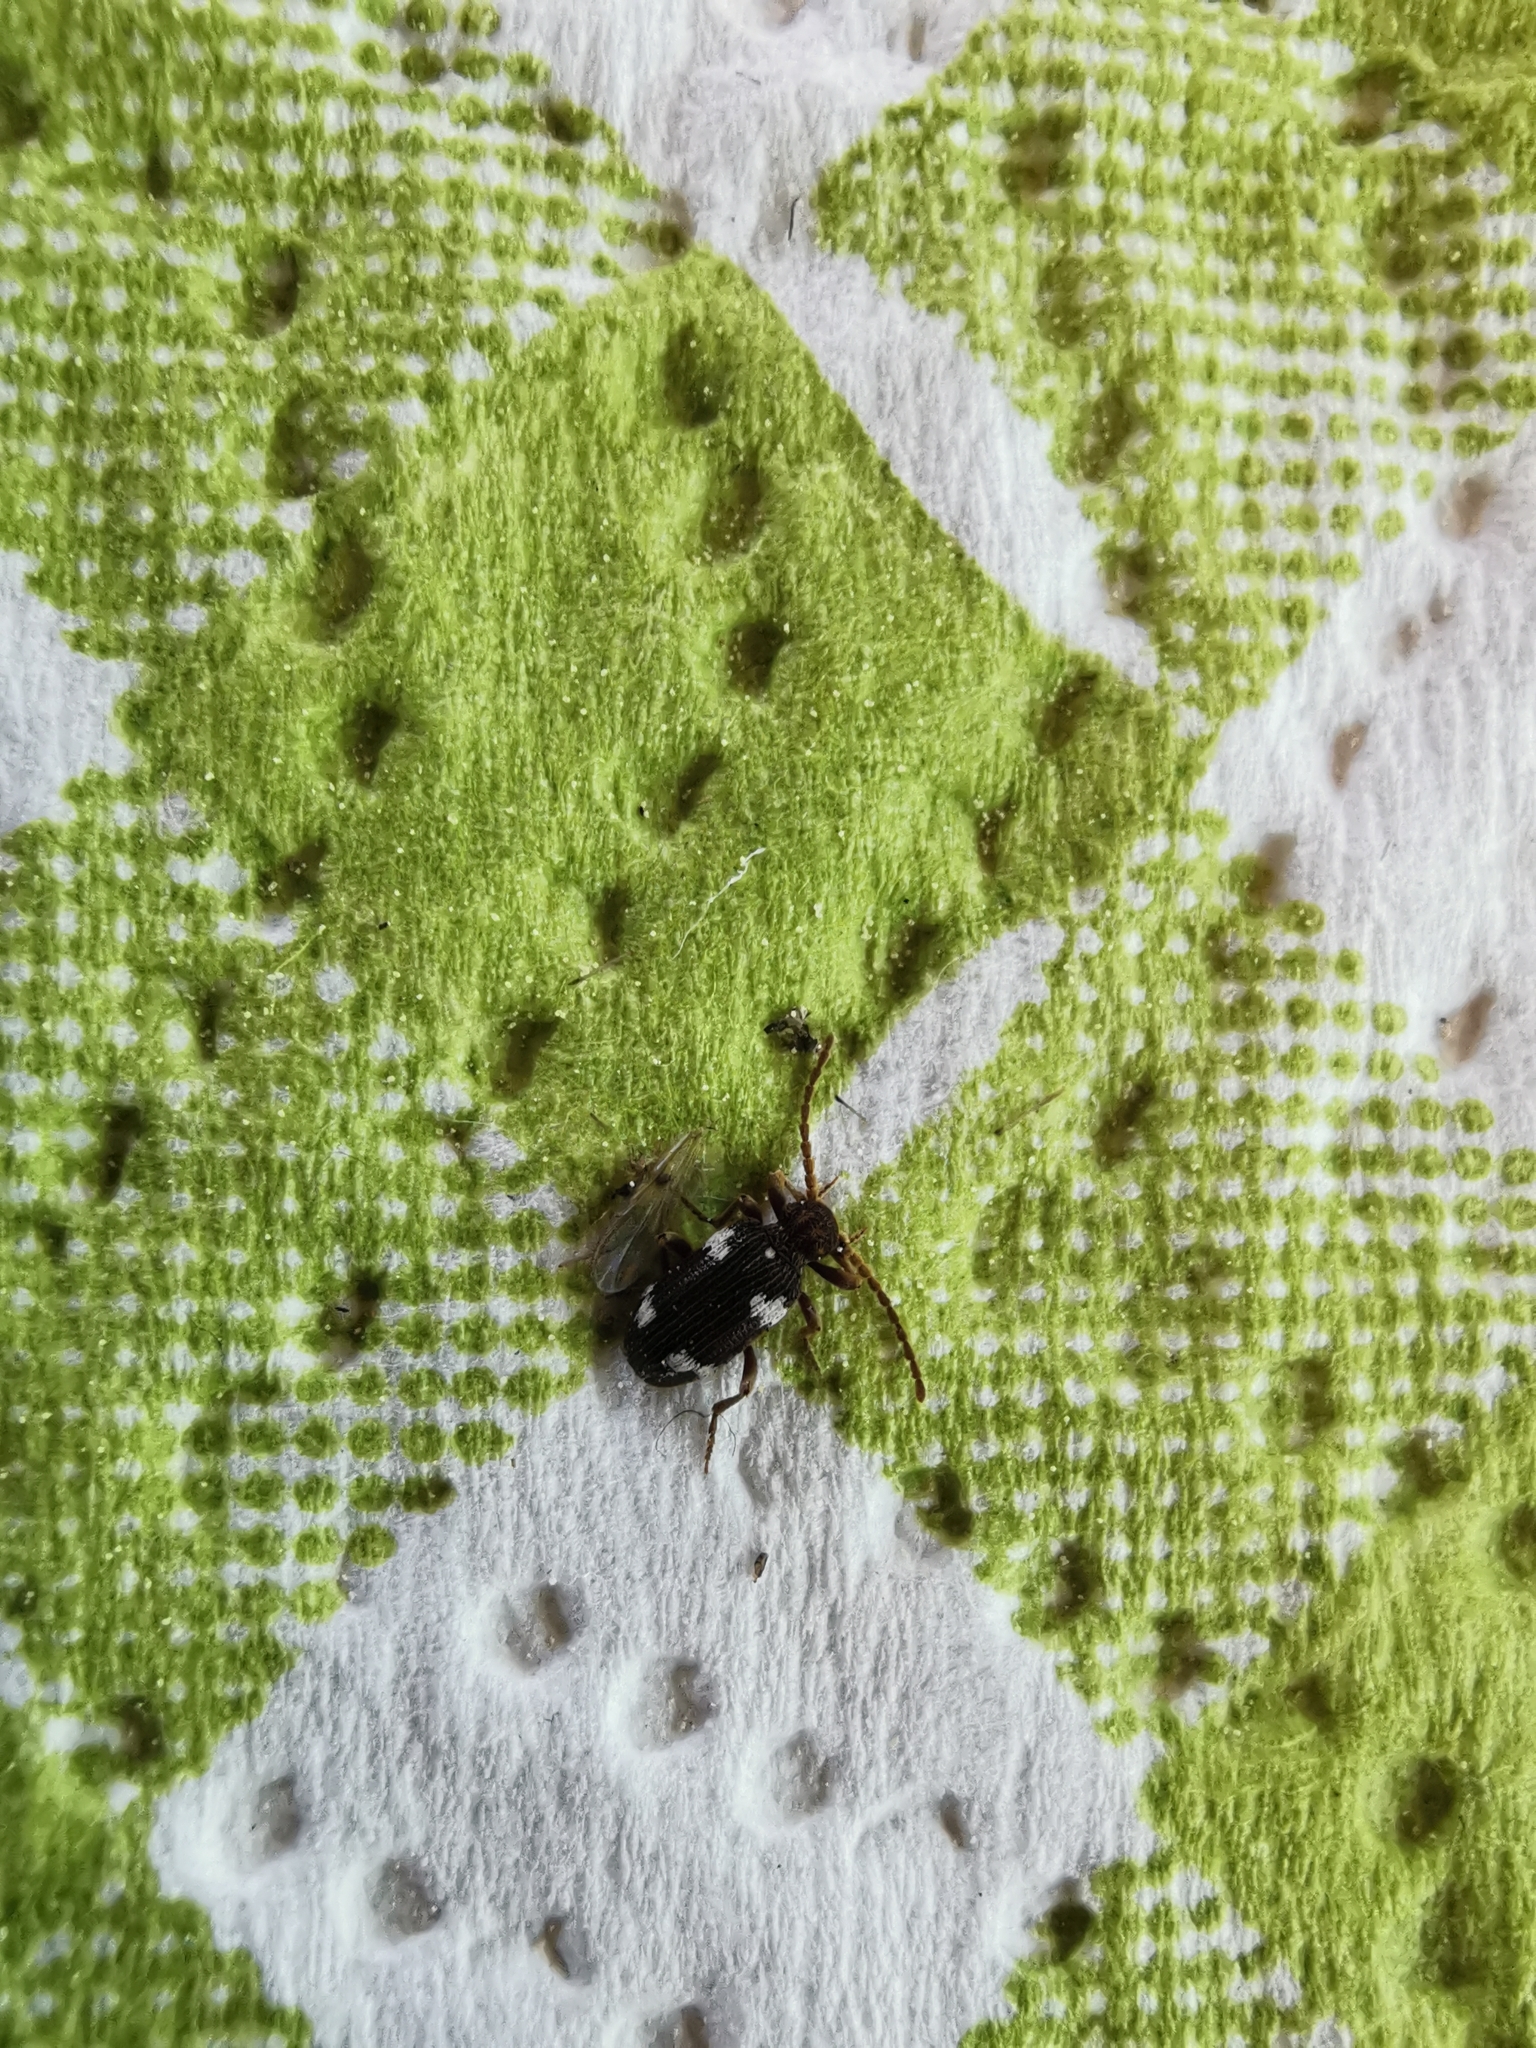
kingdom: Animalia
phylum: Arthropoda
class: Insecta
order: Coleoptera
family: Ptinidae
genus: Ptinus
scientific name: Ptinus sexpunctatus
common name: Six-spotted spider beetle
